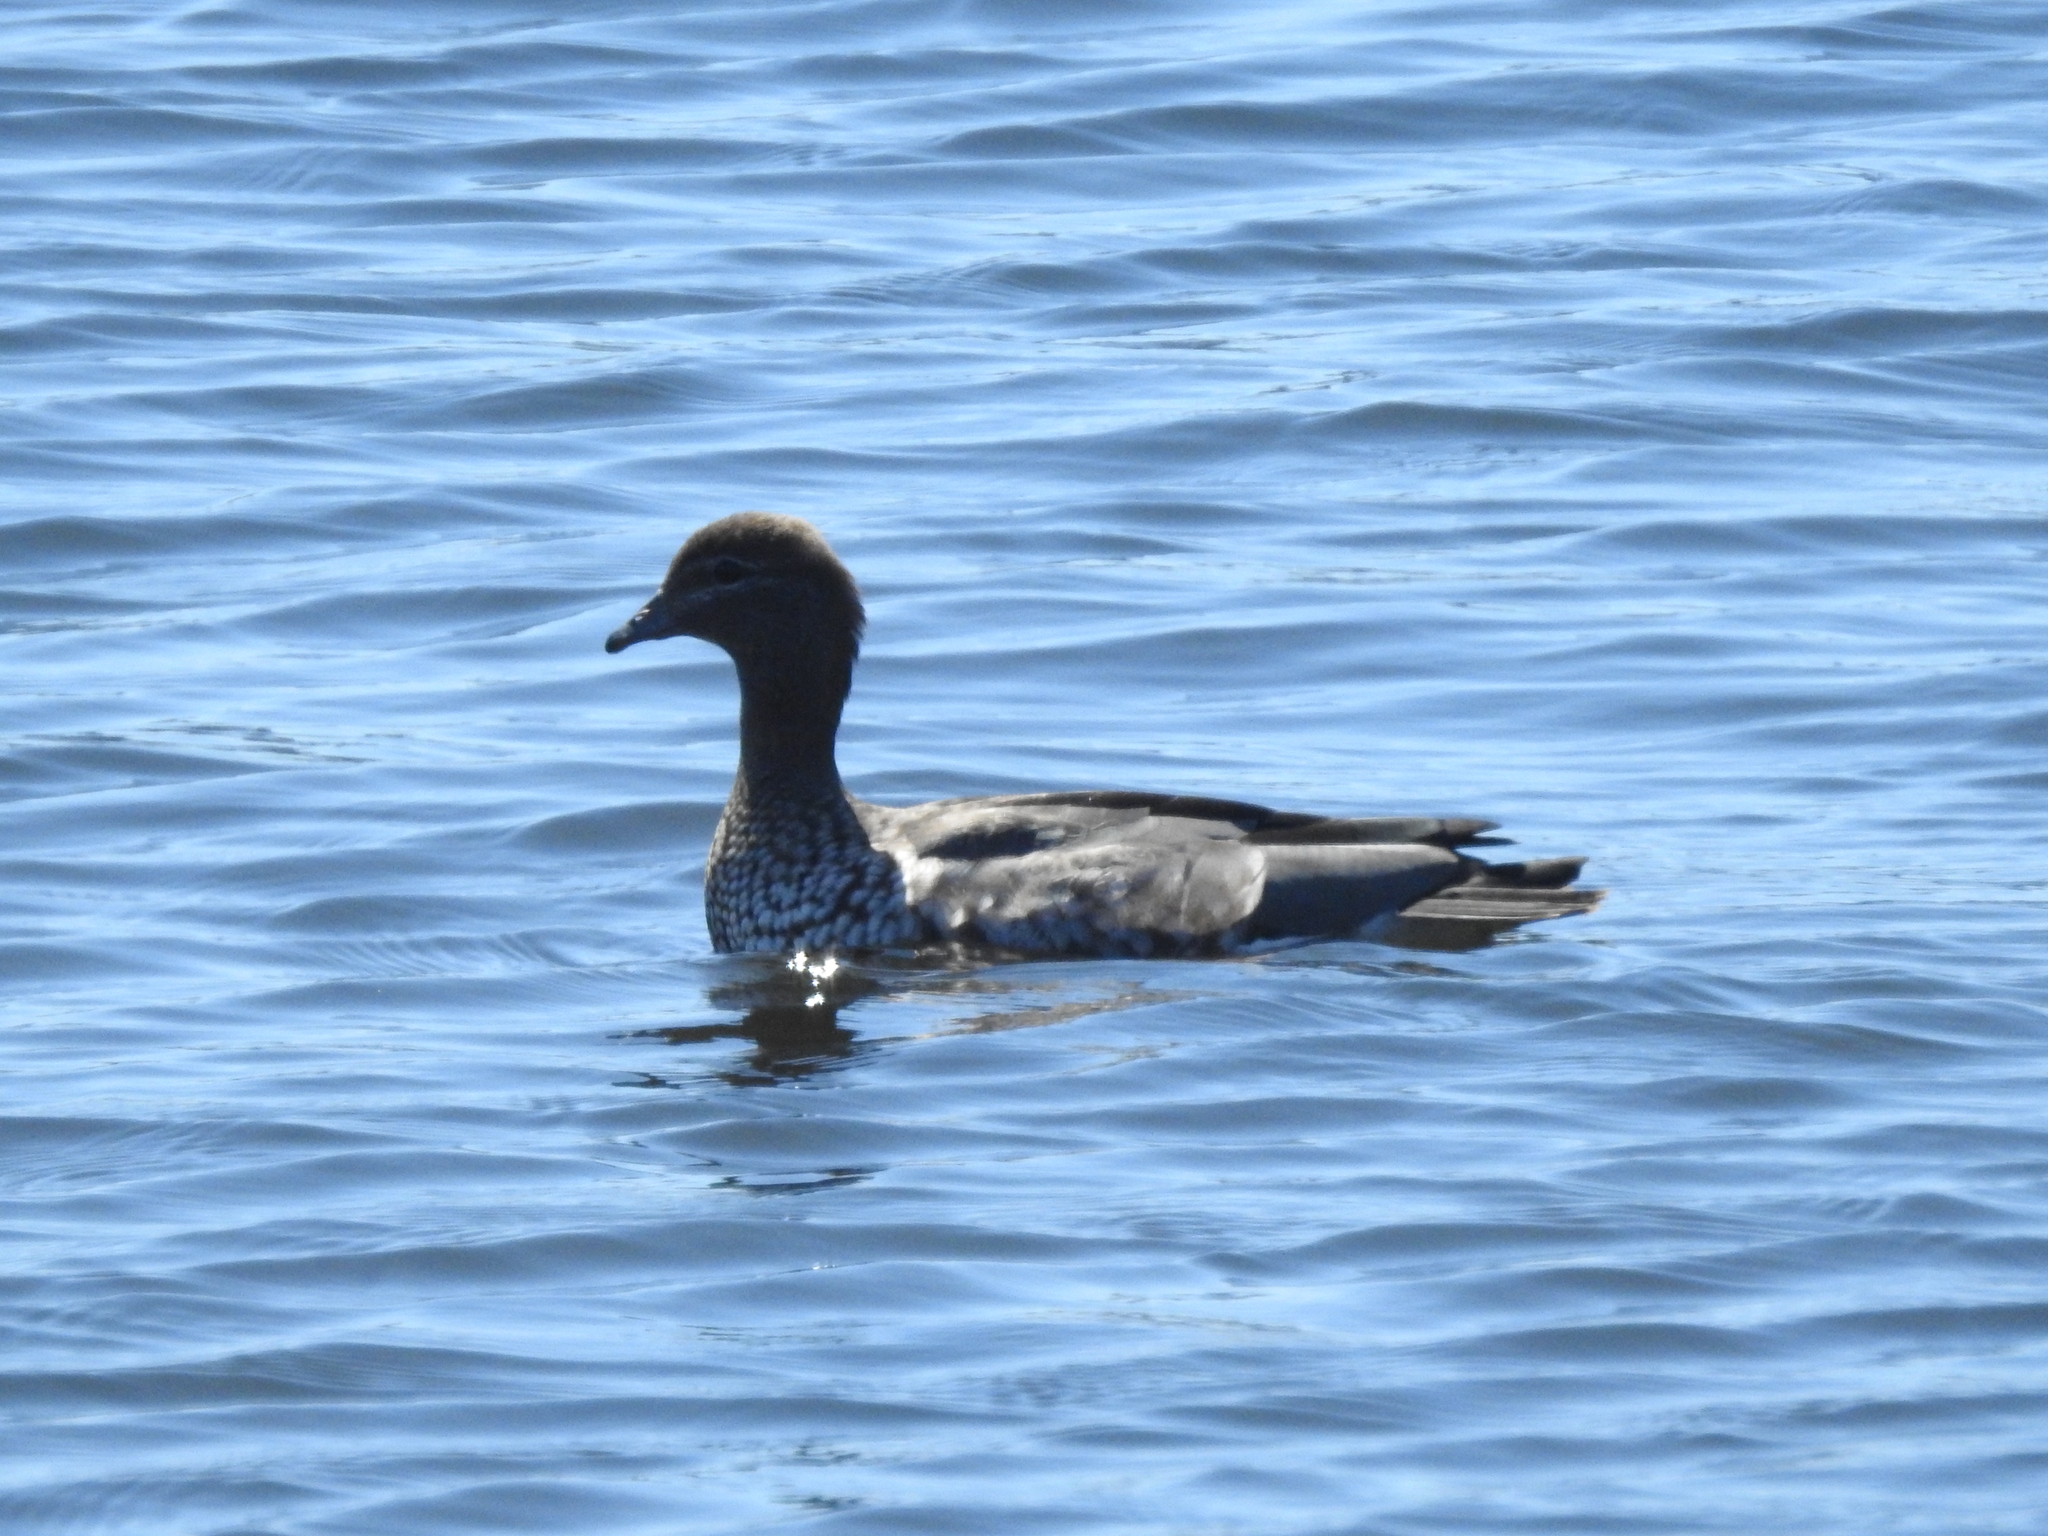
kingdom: Animalia
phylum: Chordata
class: Aves
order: Anseriformes
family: Anatidae
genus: Chenonetta
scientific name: Chenonetta jubata
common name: Maned duck
